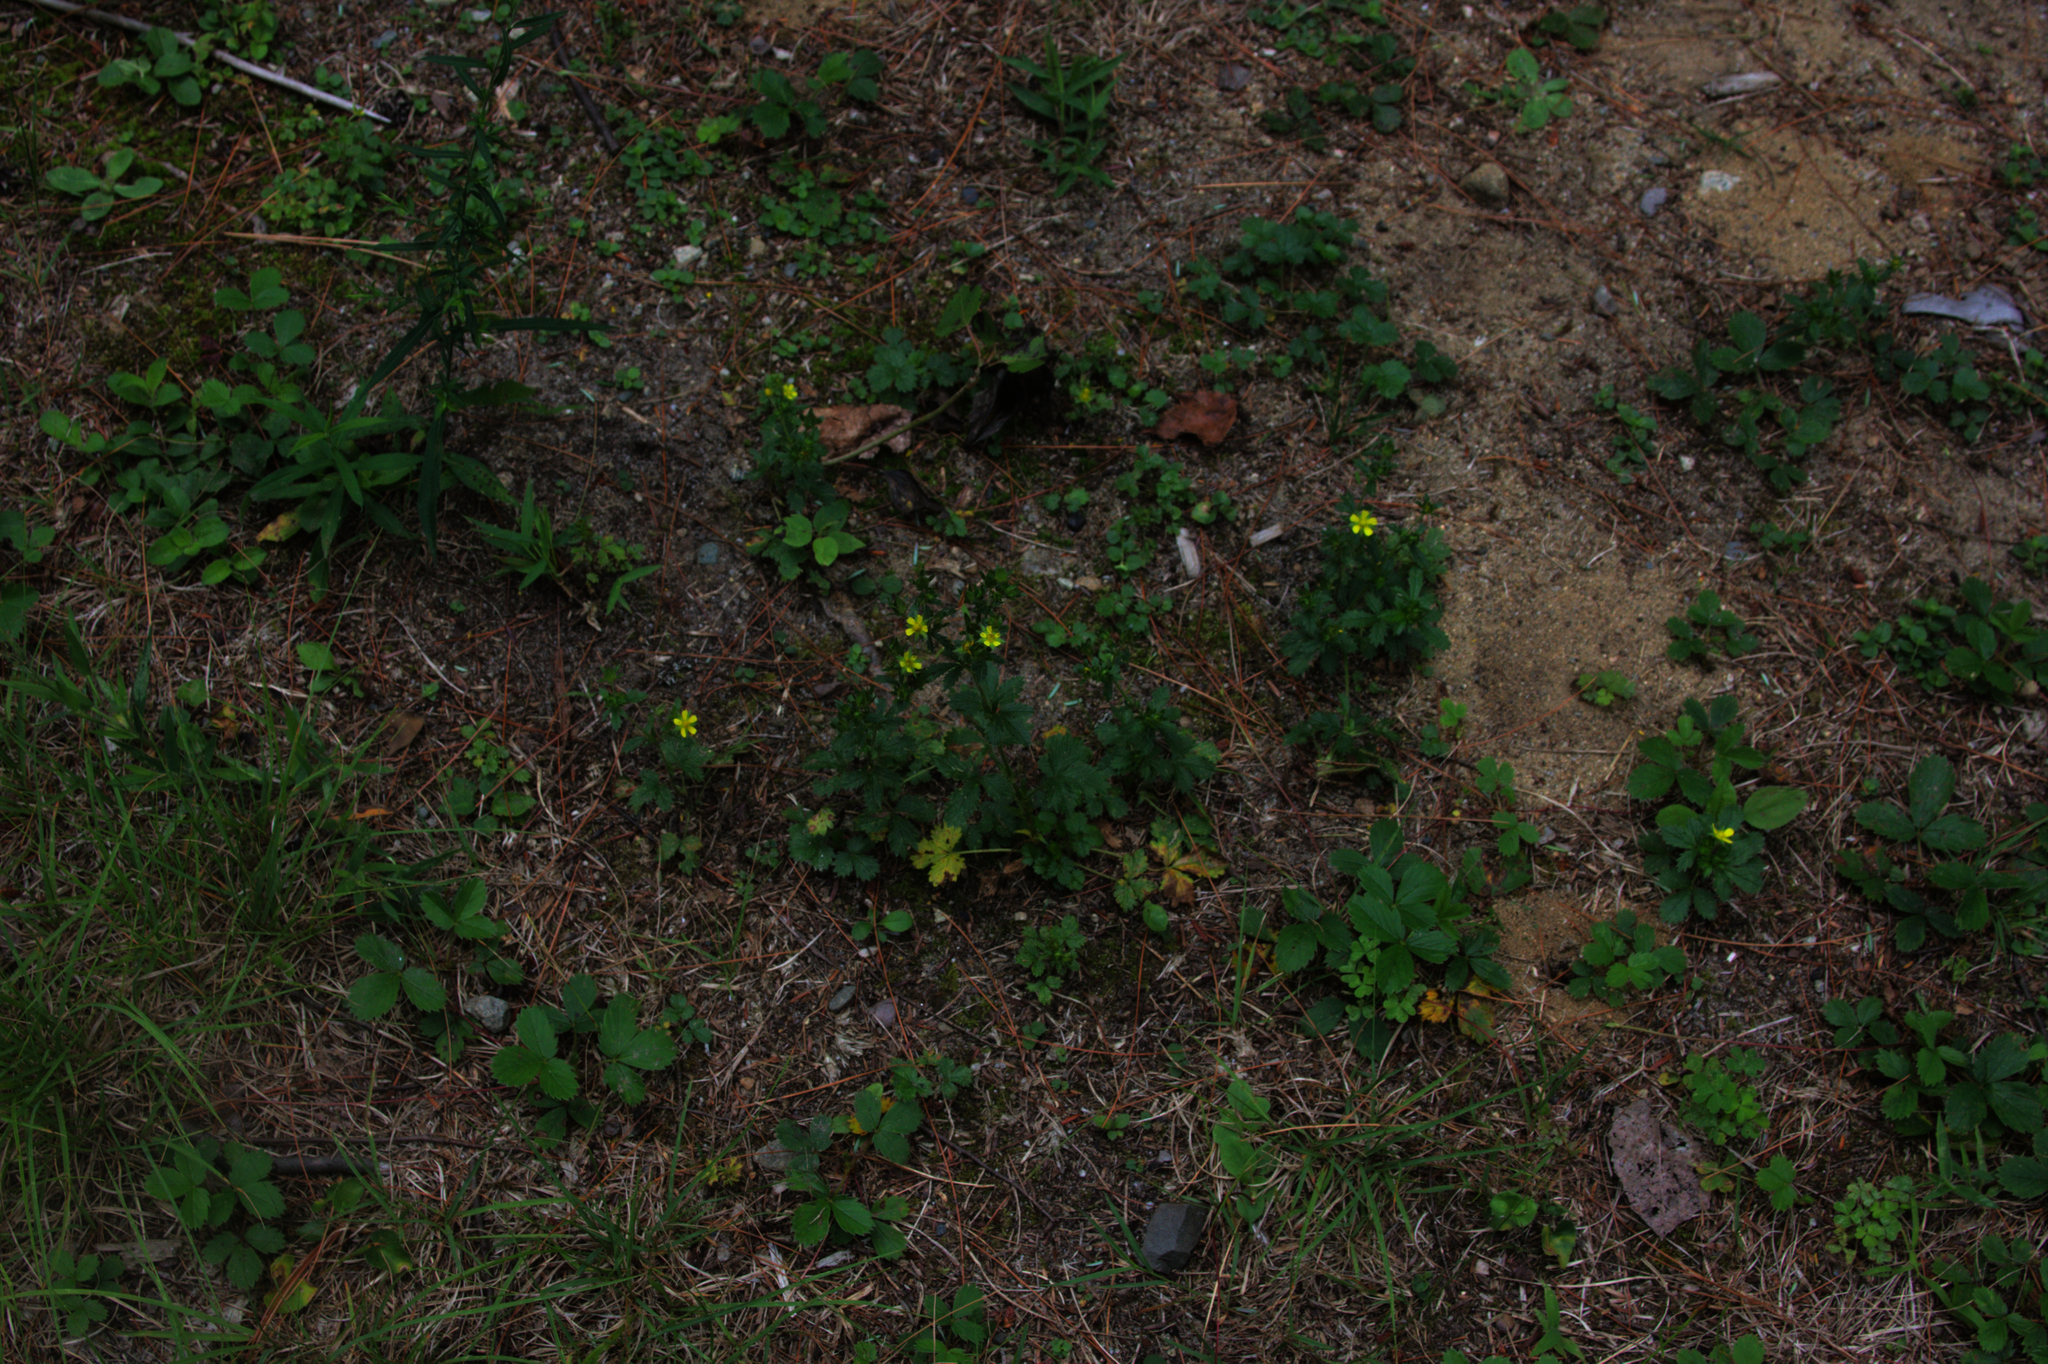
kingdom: Plantae
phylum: Tracheophyta
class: Magnoliopsida
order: Rosales
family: Rosaceae
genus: Potentilla
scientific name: Potentilla norvegica
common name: Ternate-leaved cinquefoil
